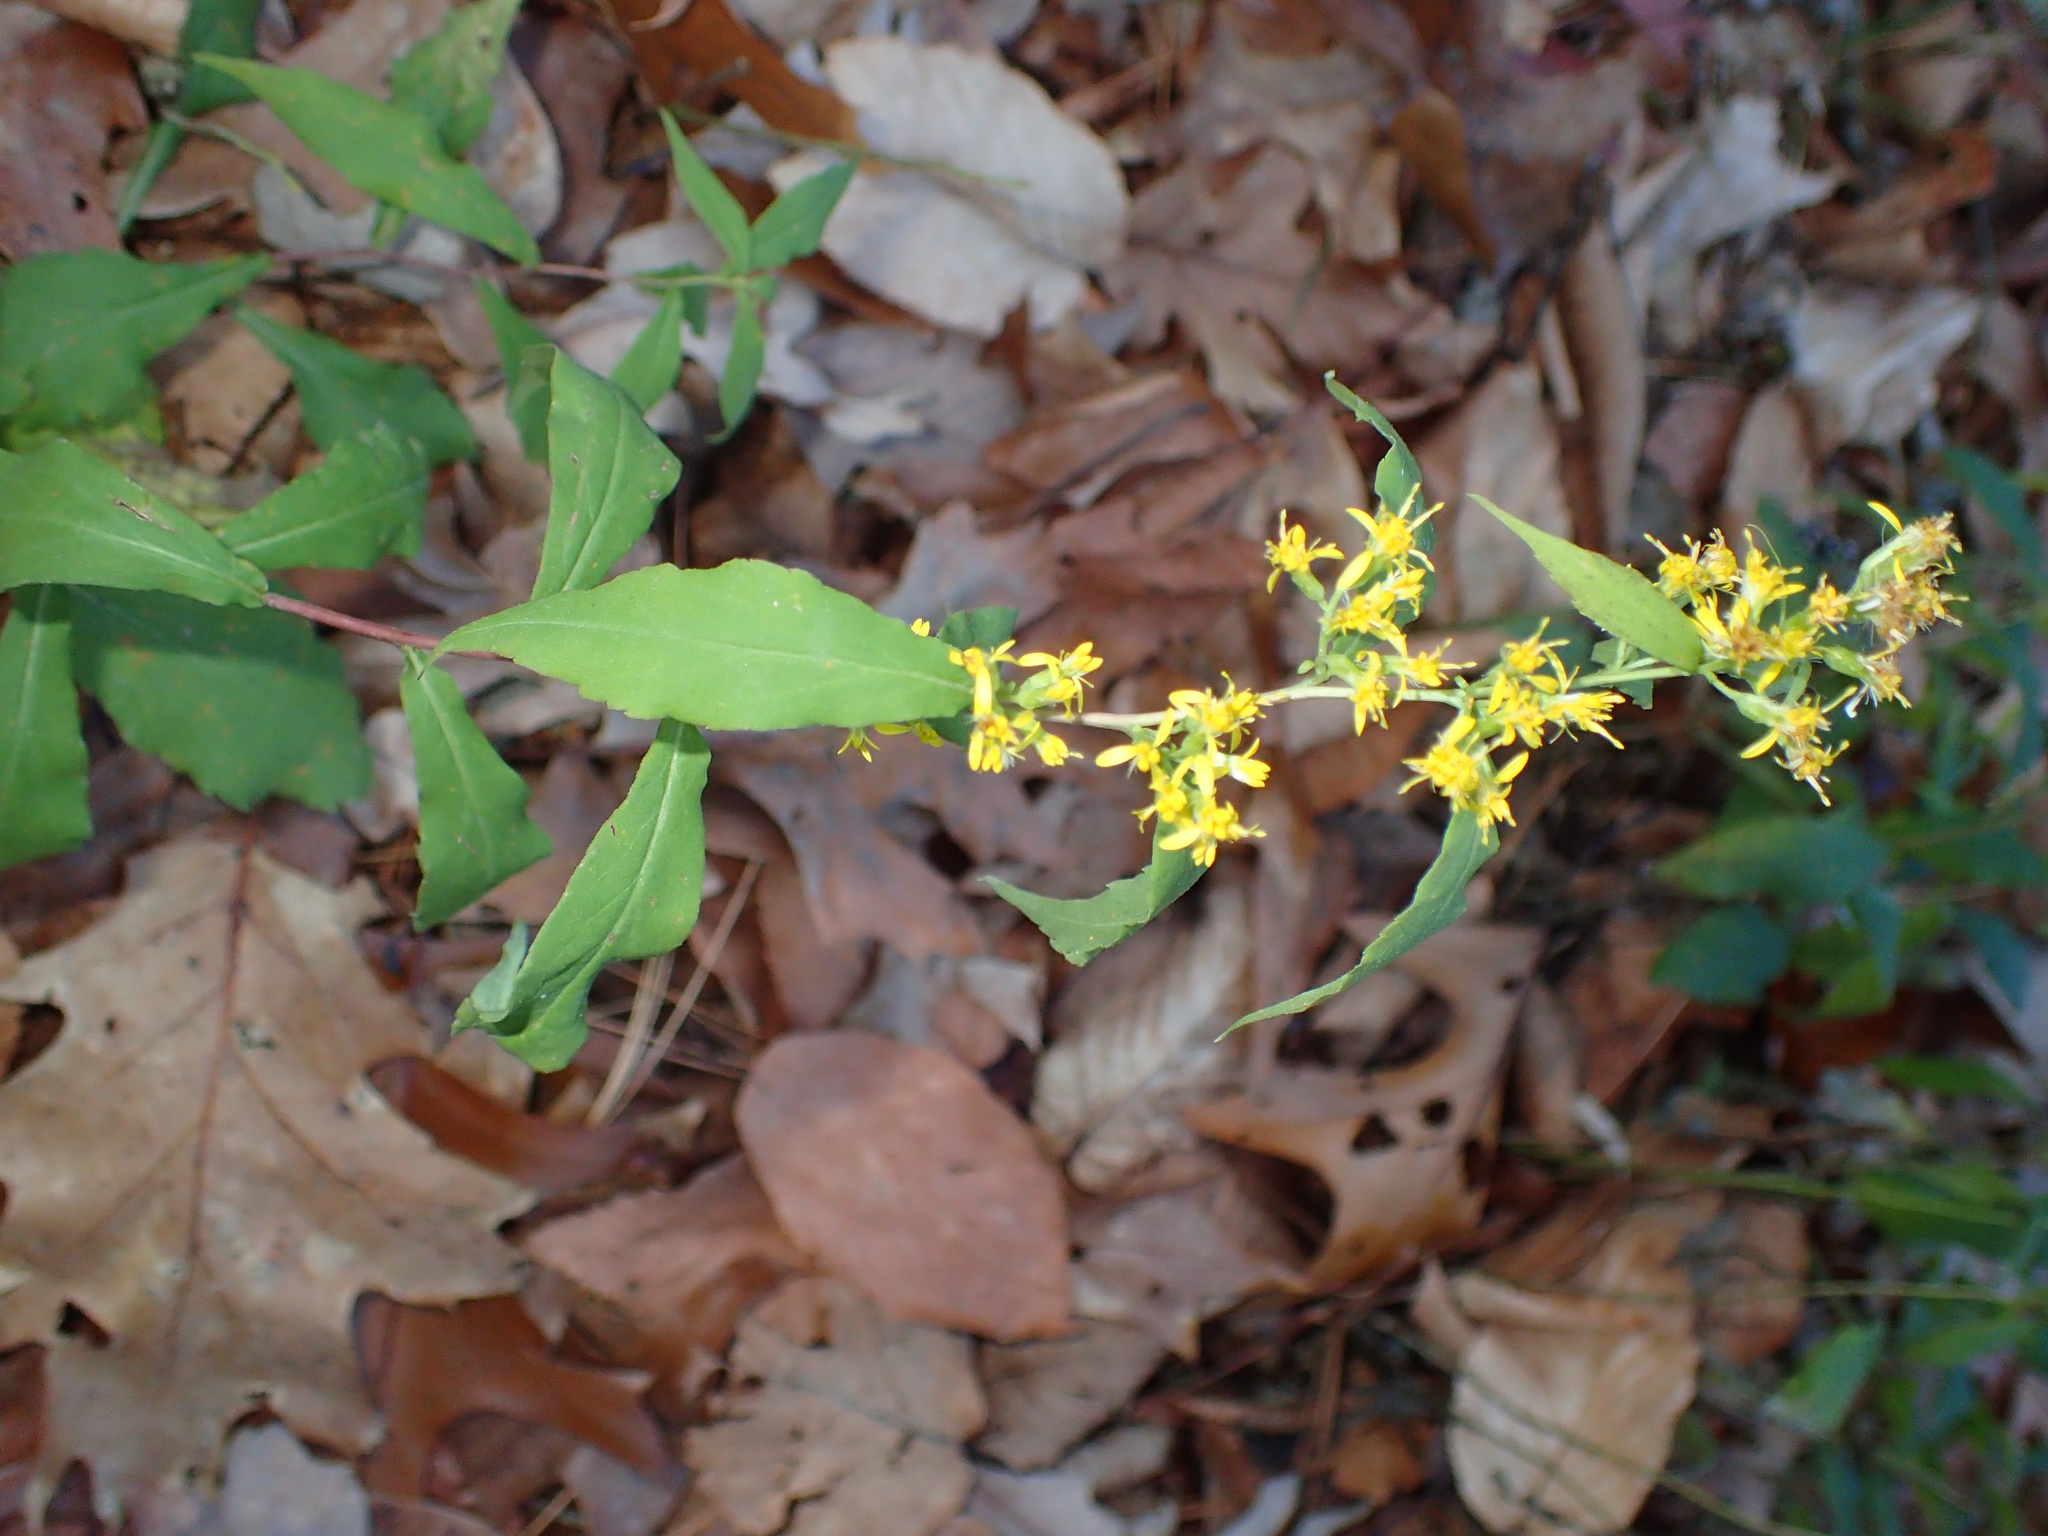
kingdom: Plantae
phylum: Tracheophyta
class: Magnoliopsida
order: Asterales
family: Asteraceae
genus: Solidago
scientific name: Solidago caesia
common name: Woodland goldenrod
